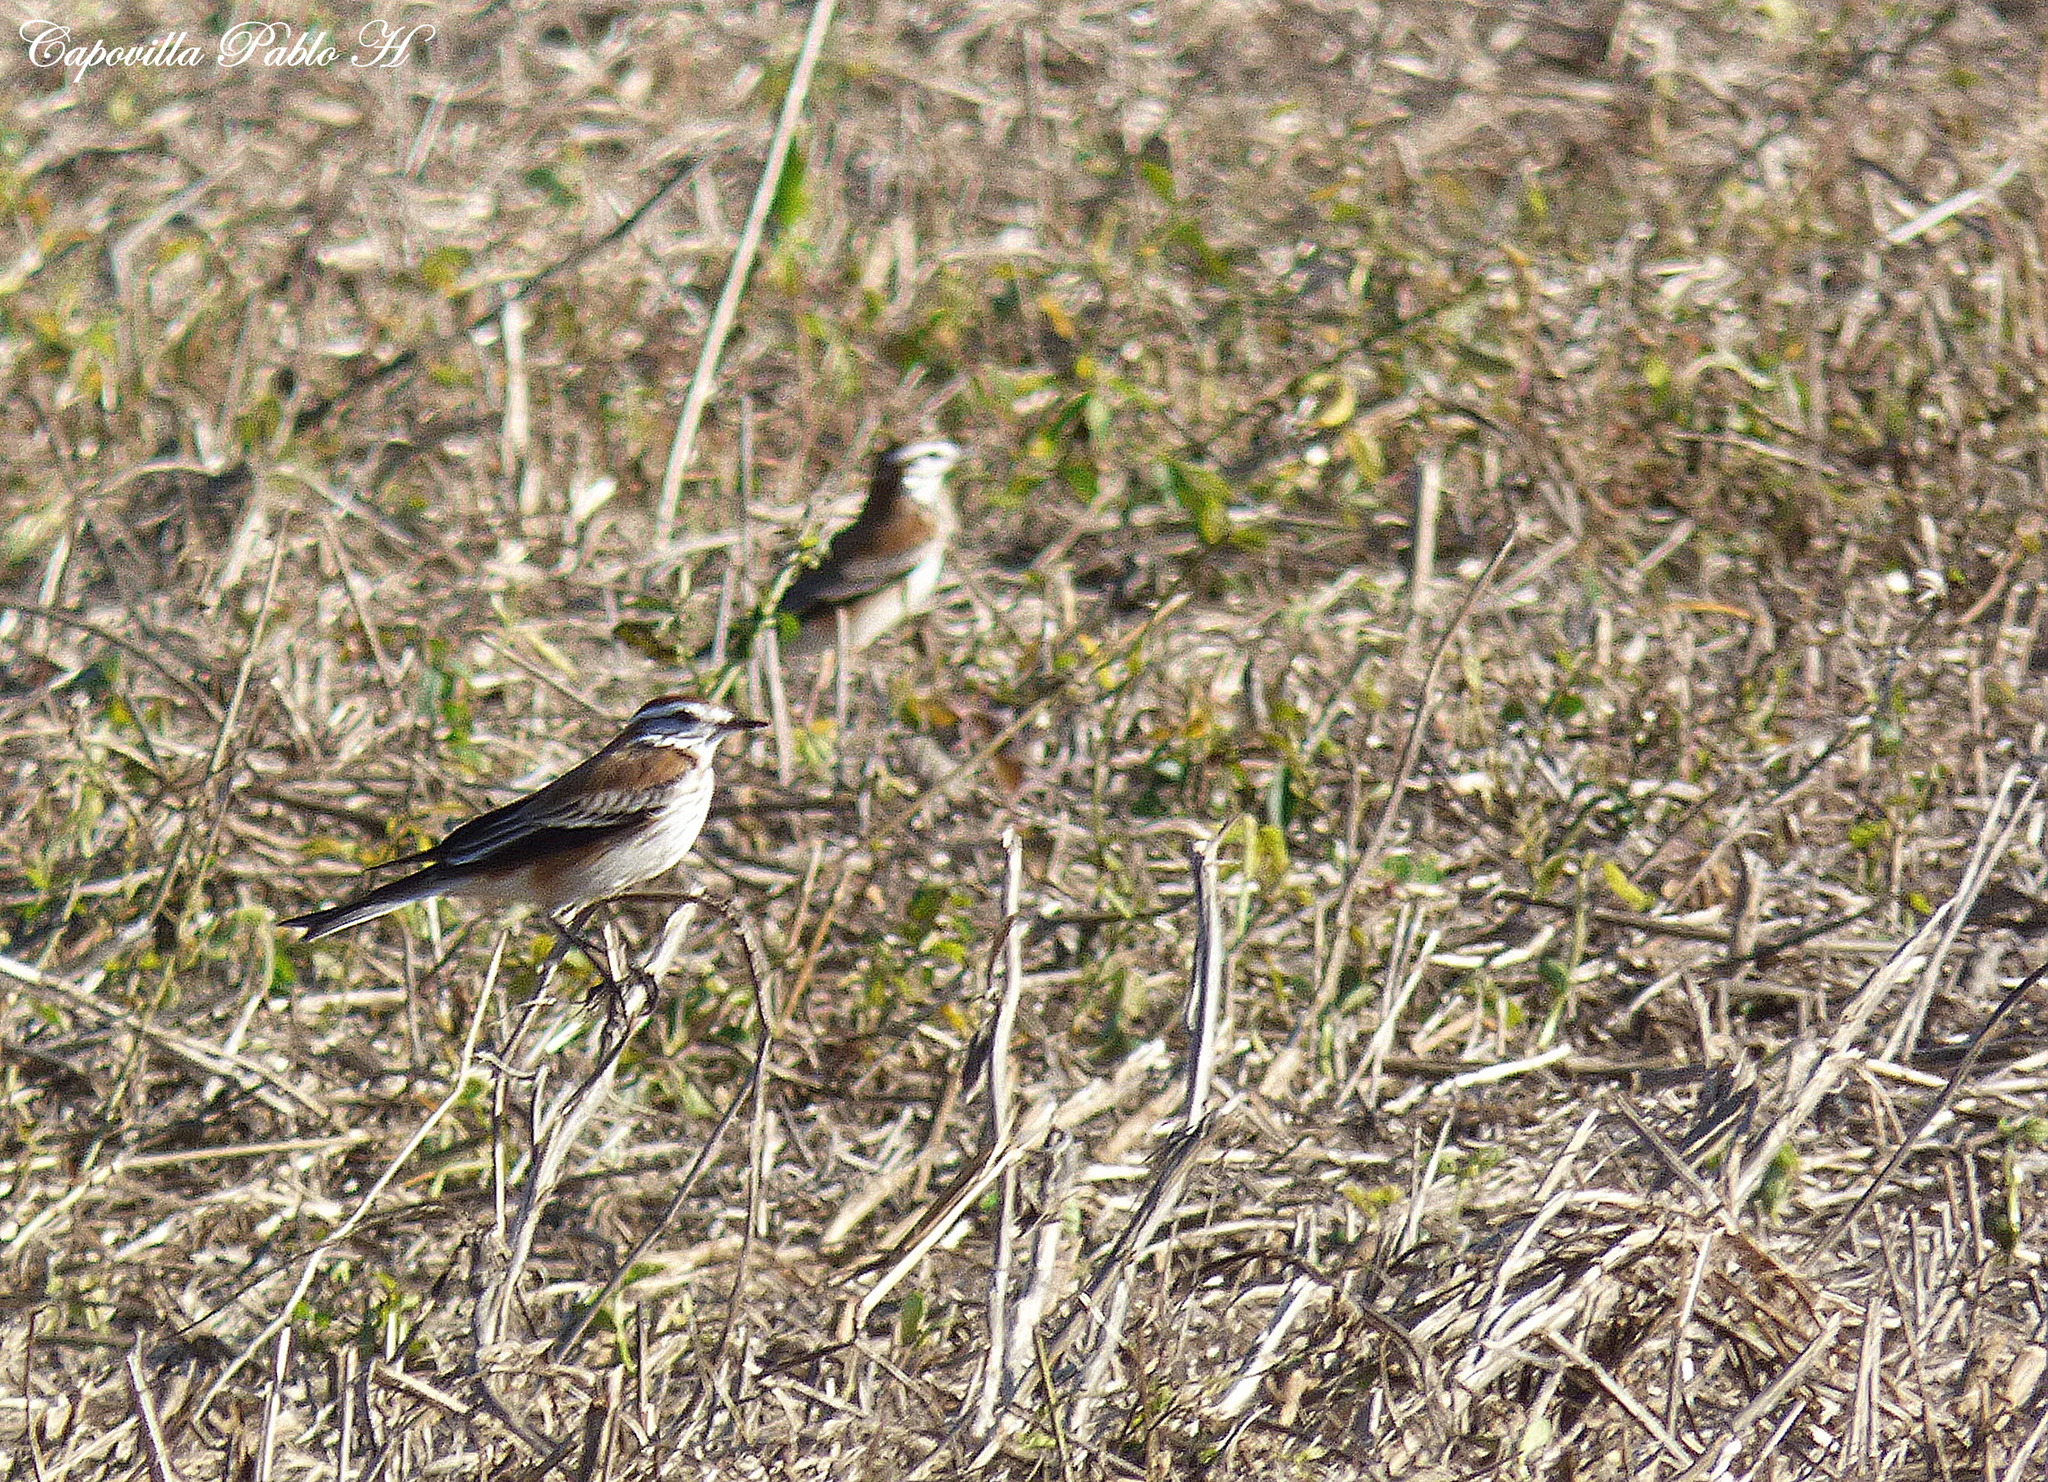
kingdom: Animalia
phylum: Chordata
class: Aves
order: Passeriformes
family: Tyrannidae
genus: Xolmis
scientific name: Xolmis rubetra
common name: Rusty-backed monjita
